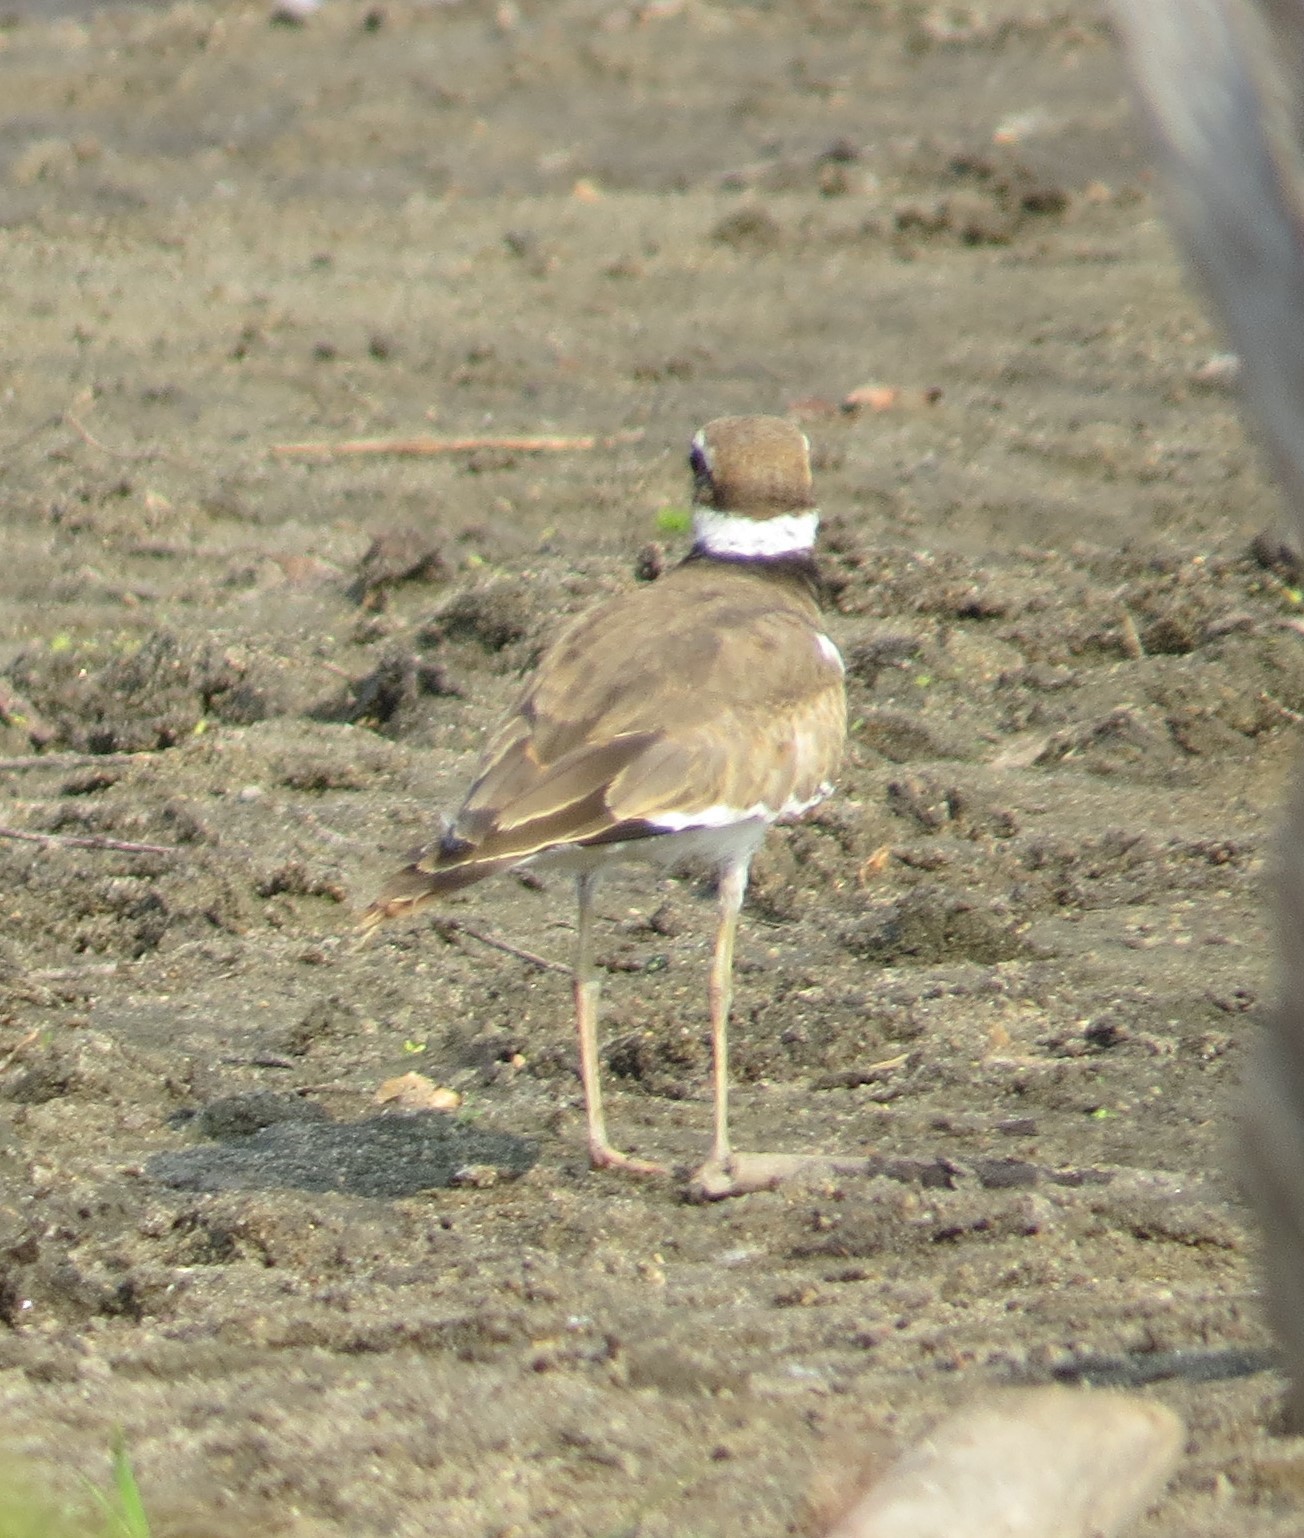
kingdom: Animalia
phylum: Chordata
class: Aves
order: Charadriiformes
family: Charadriidae
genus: Charadrius
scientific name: Charadrius vociferus
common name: Killdeer
